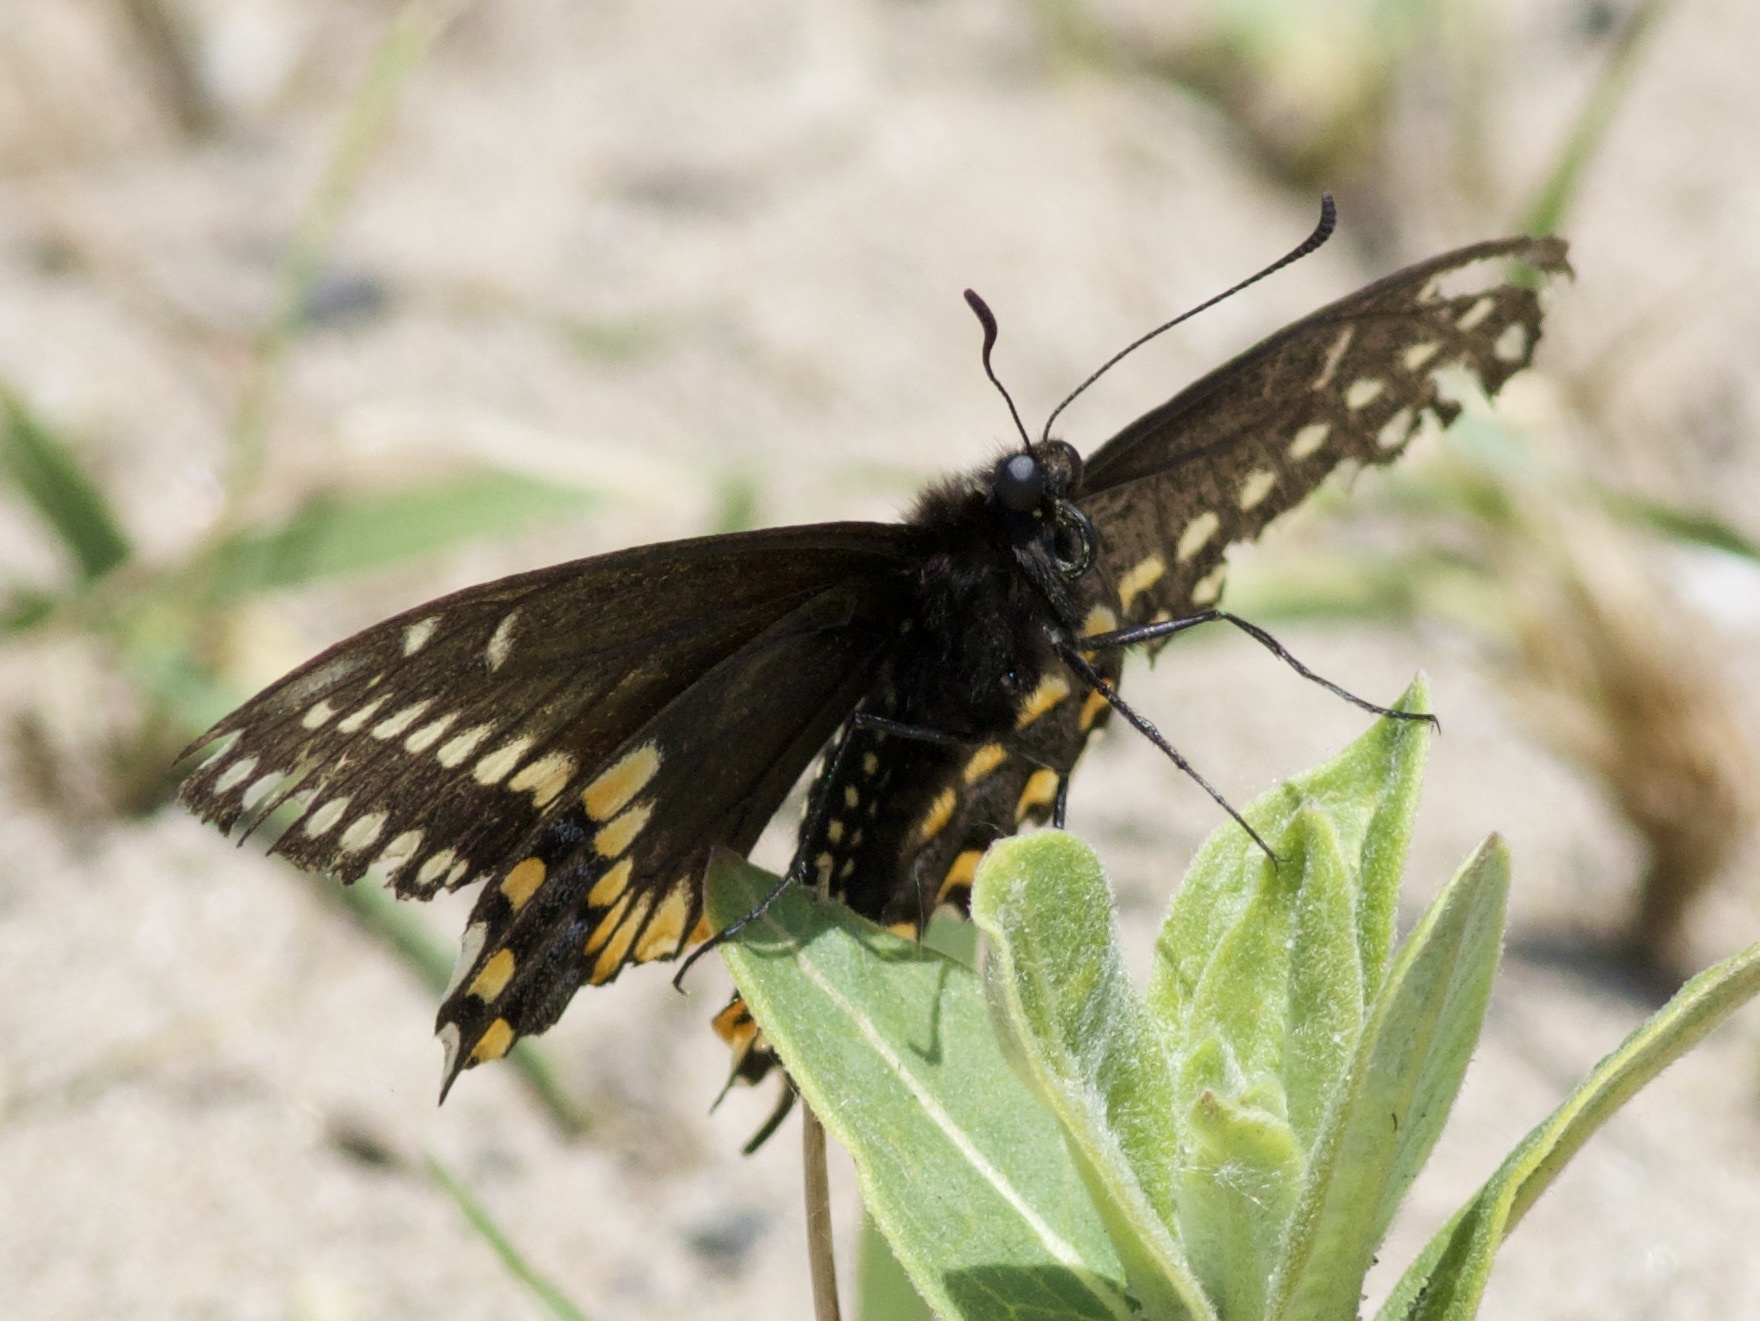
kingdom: Animalia
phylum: Arthropoda
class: Insecta
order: Lepidoptera
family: Papilionidae
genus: Papilio
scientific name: Papilio polyxenes
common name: Black swallowtail
